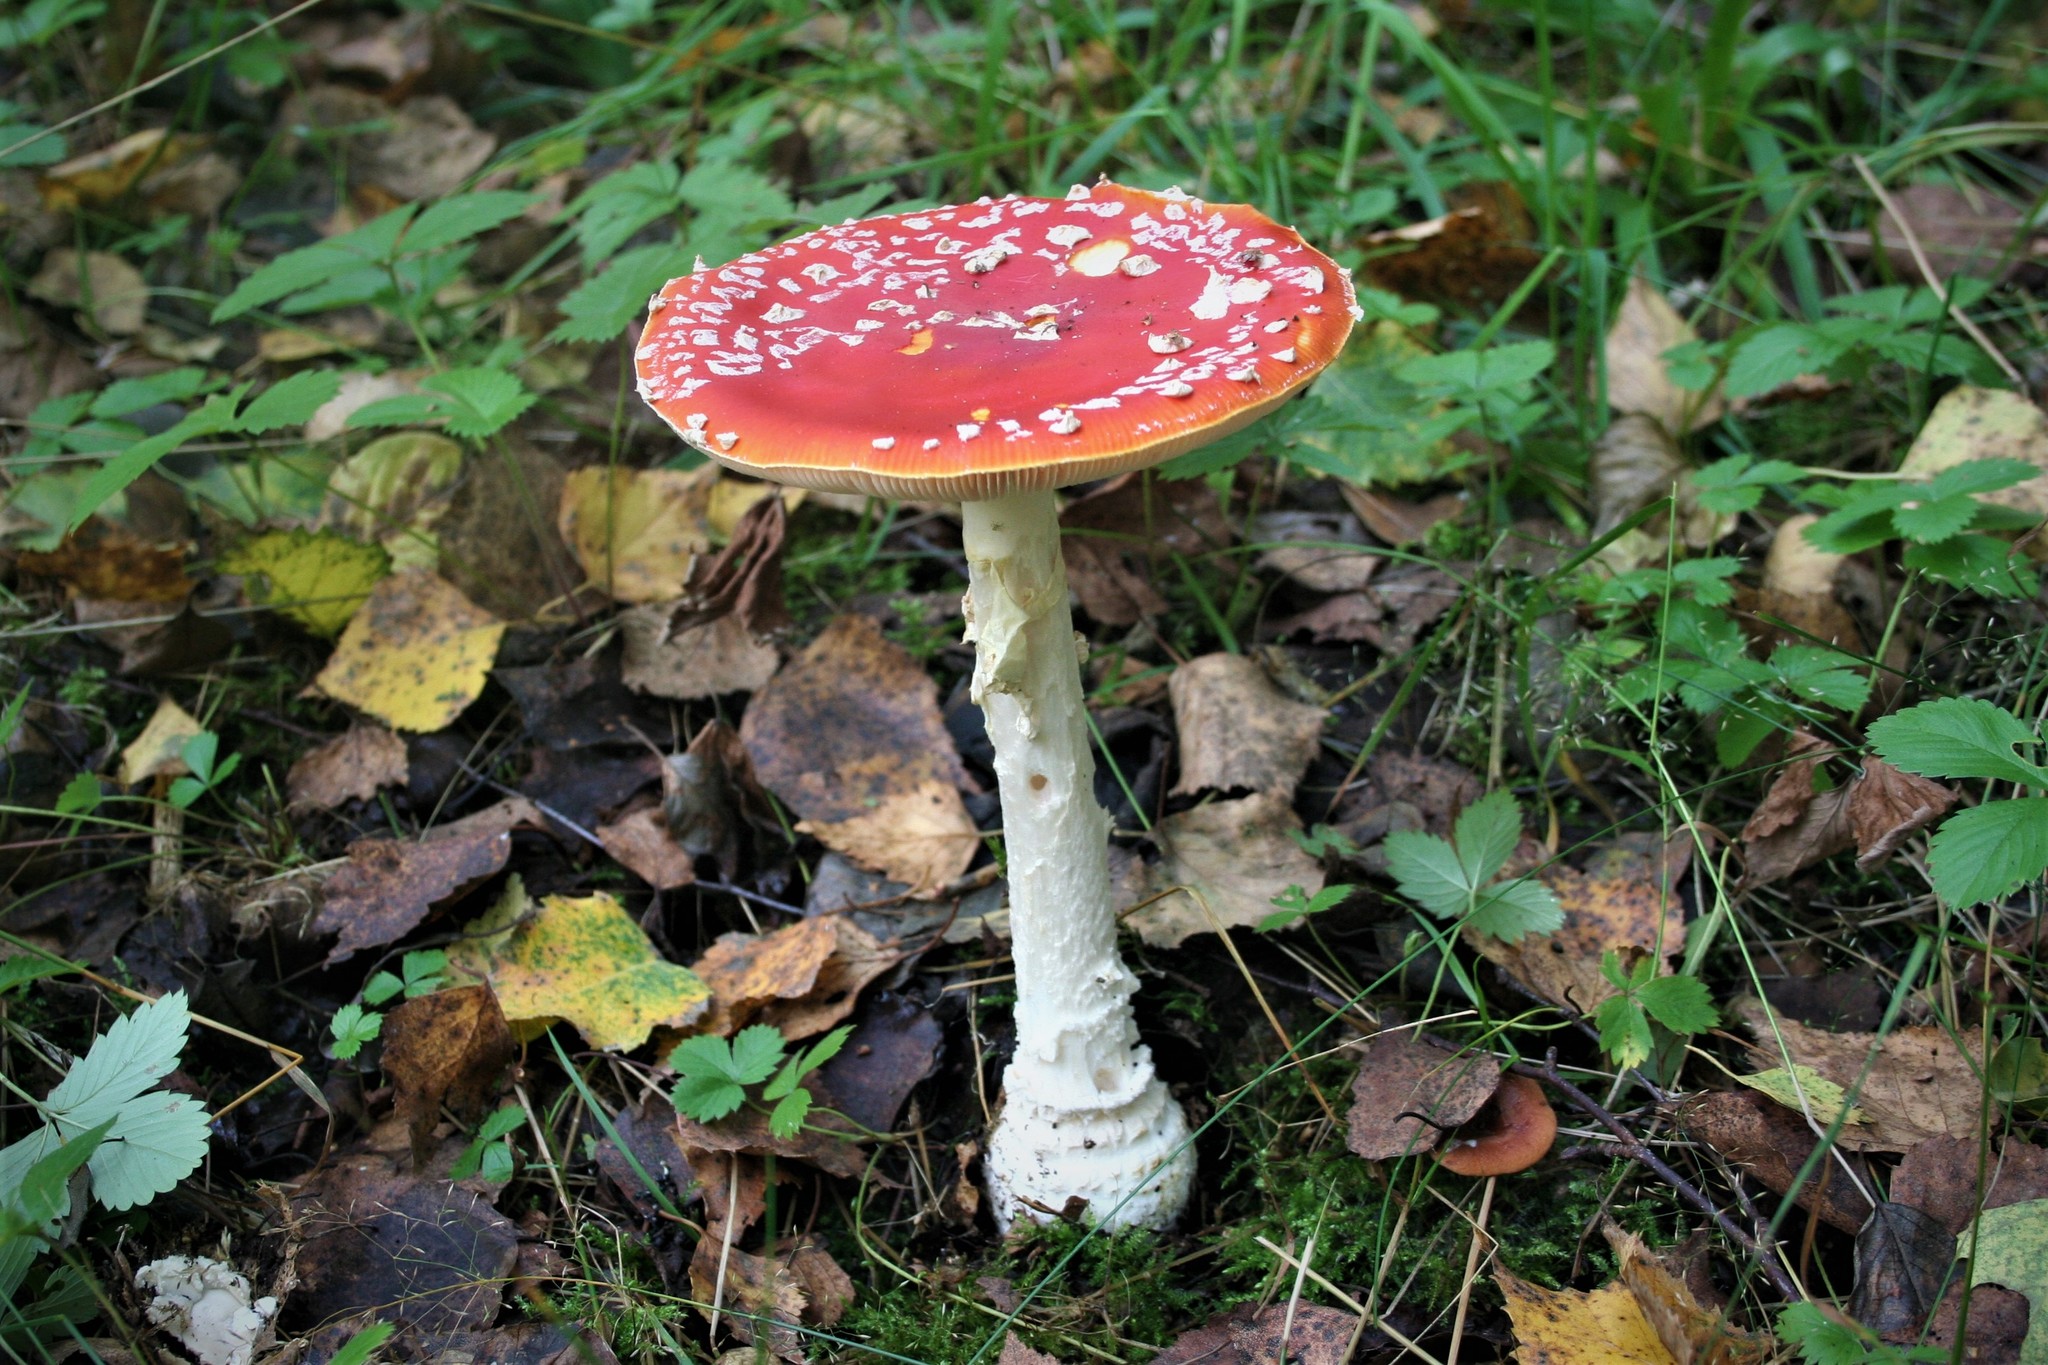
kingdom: Fungi
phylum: Basidiomycota
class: Agaricomycetes
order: Agaricales
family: Amanitaceae
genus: Amanita
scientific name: Amanita muscaria
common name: Fly agaric
